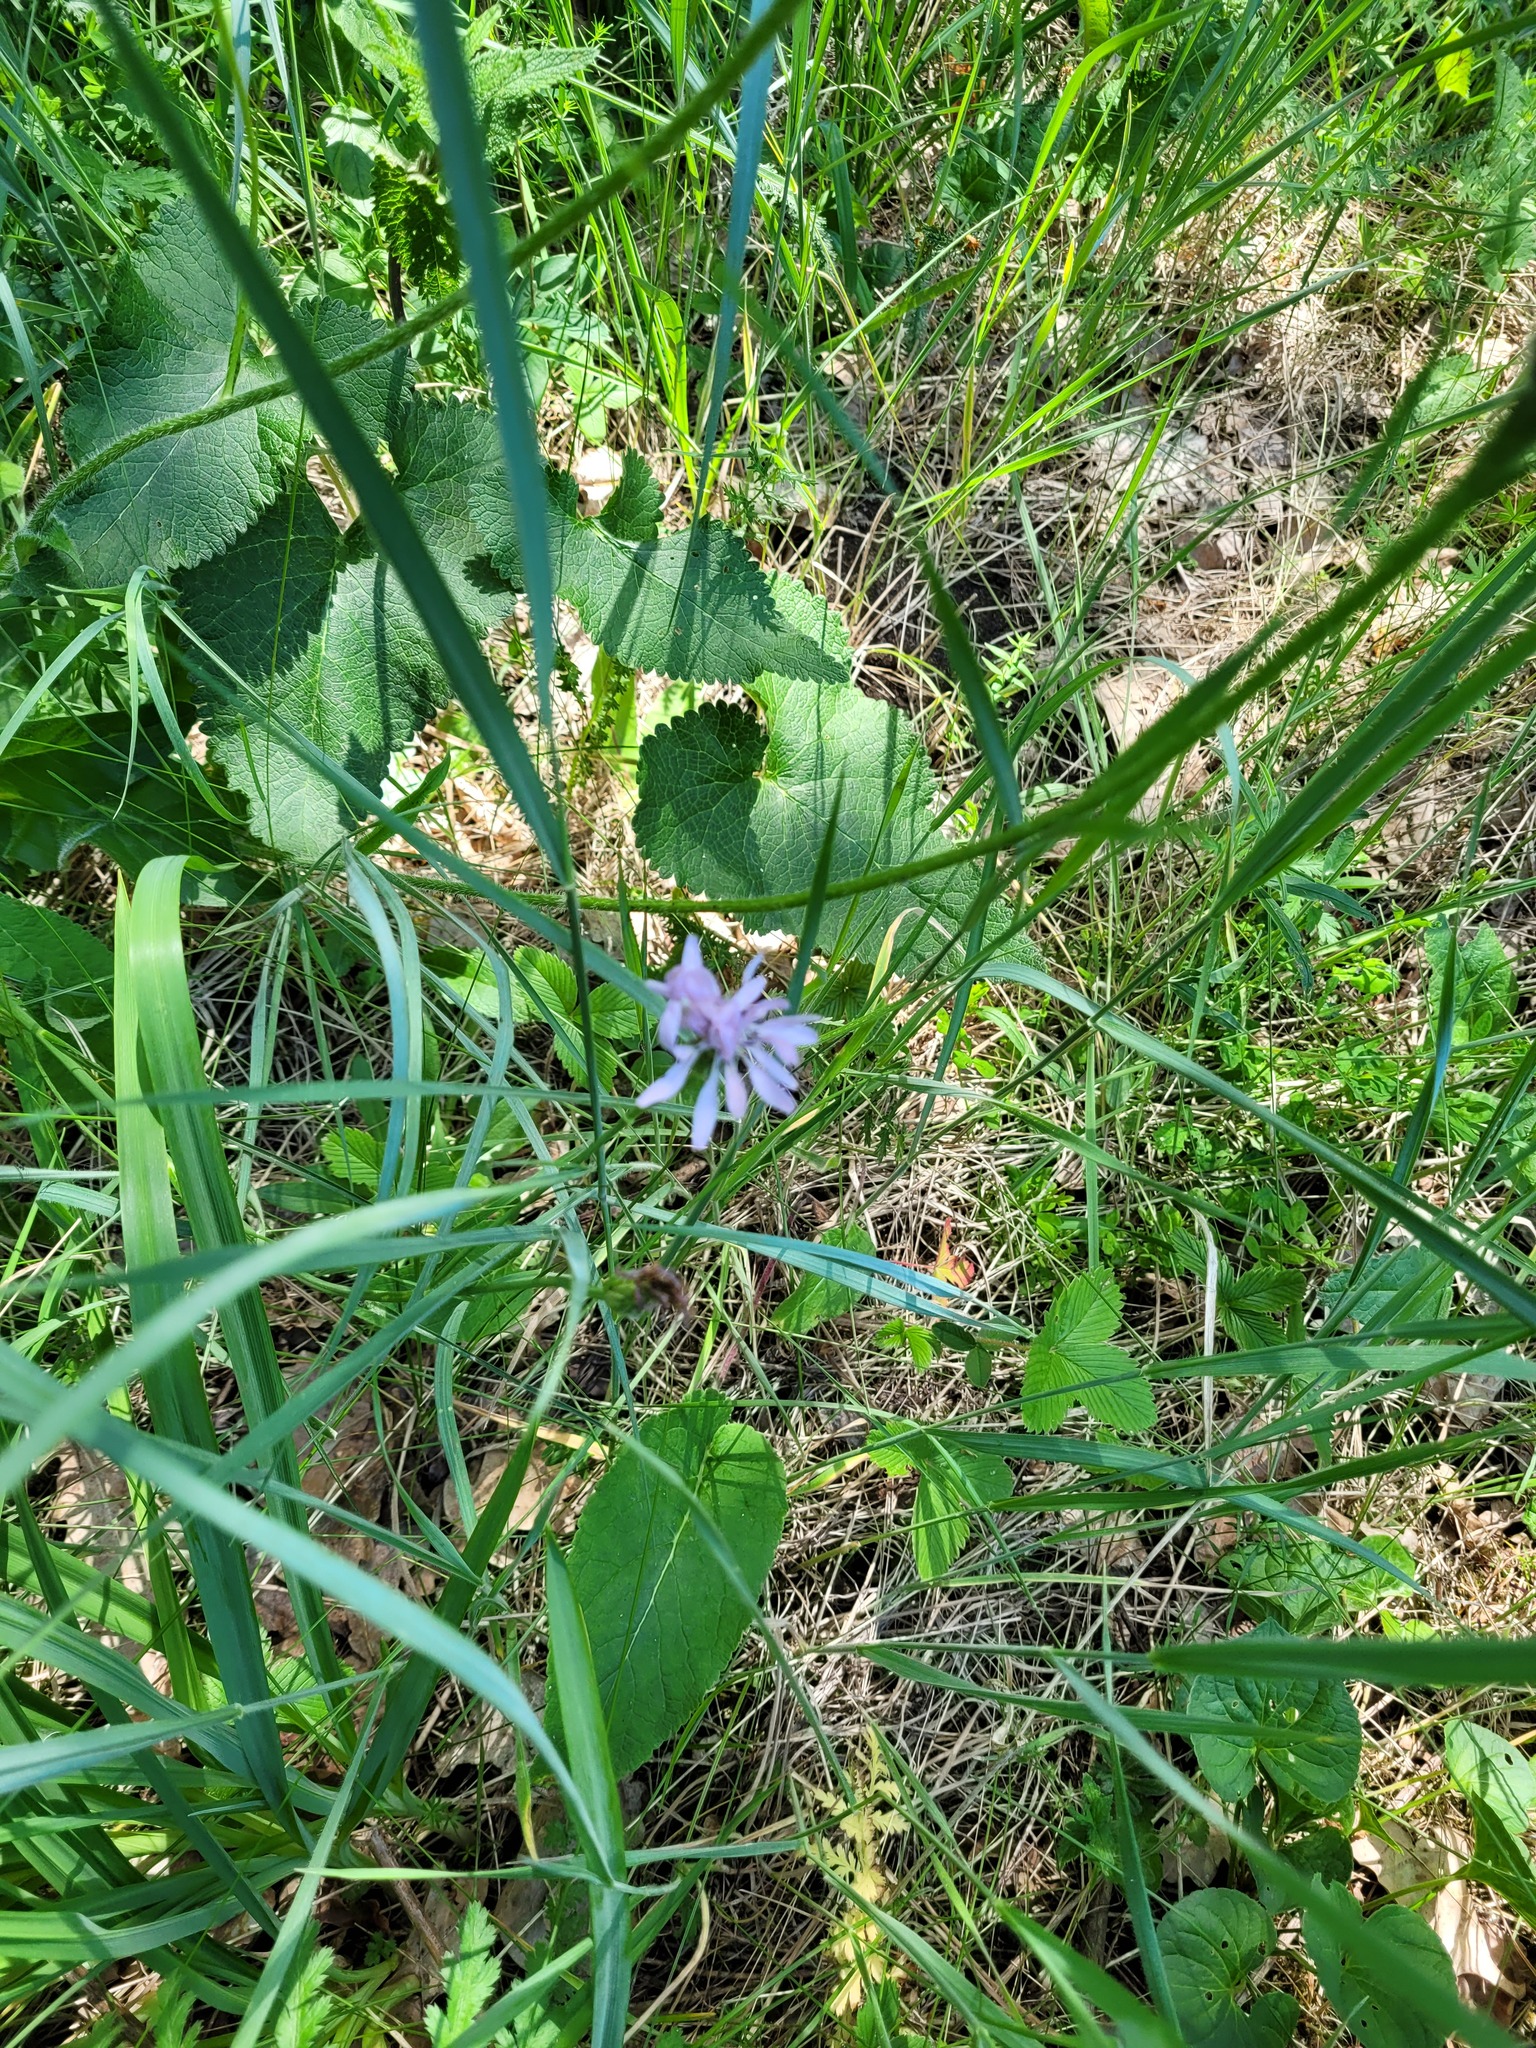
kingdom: Plantae
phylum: Tracheophyta
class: Magnoliopsida
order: Asterales
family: Asteraceae
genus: Scorzonera
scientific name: Scorzonera purpurea
